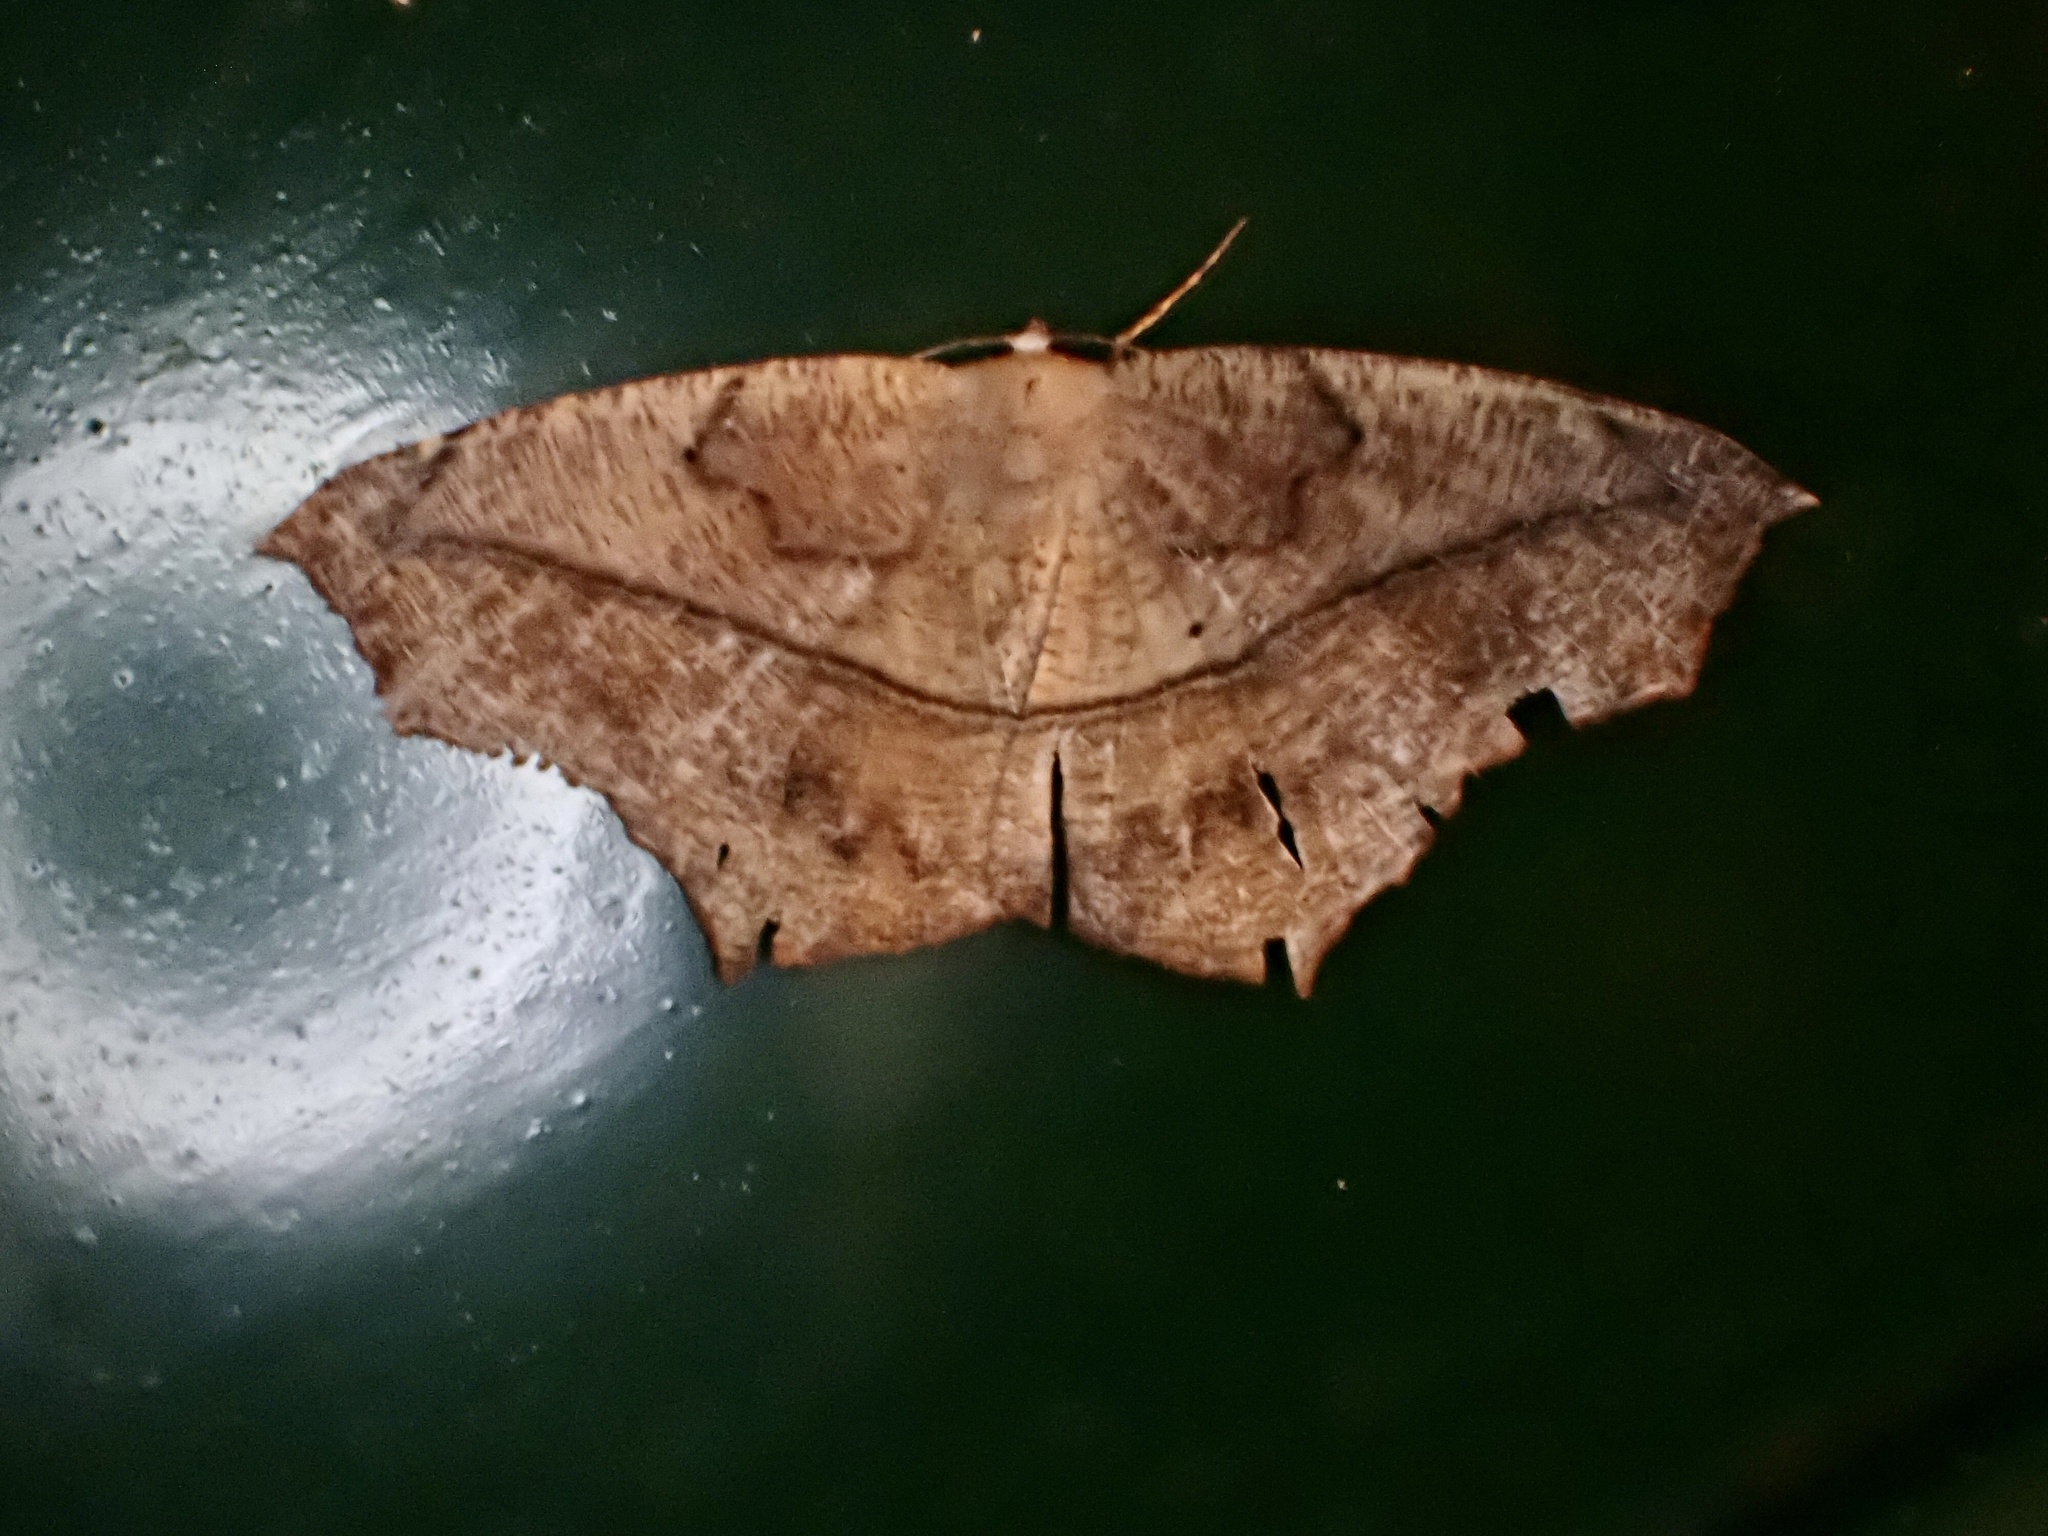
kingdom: Animalia
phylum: Arthropoda
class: Insecta
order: Lepidoptera
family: Geometridae
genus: Prochoerodes
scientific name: Prochoerodes lineola
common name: Large maple spanworm
